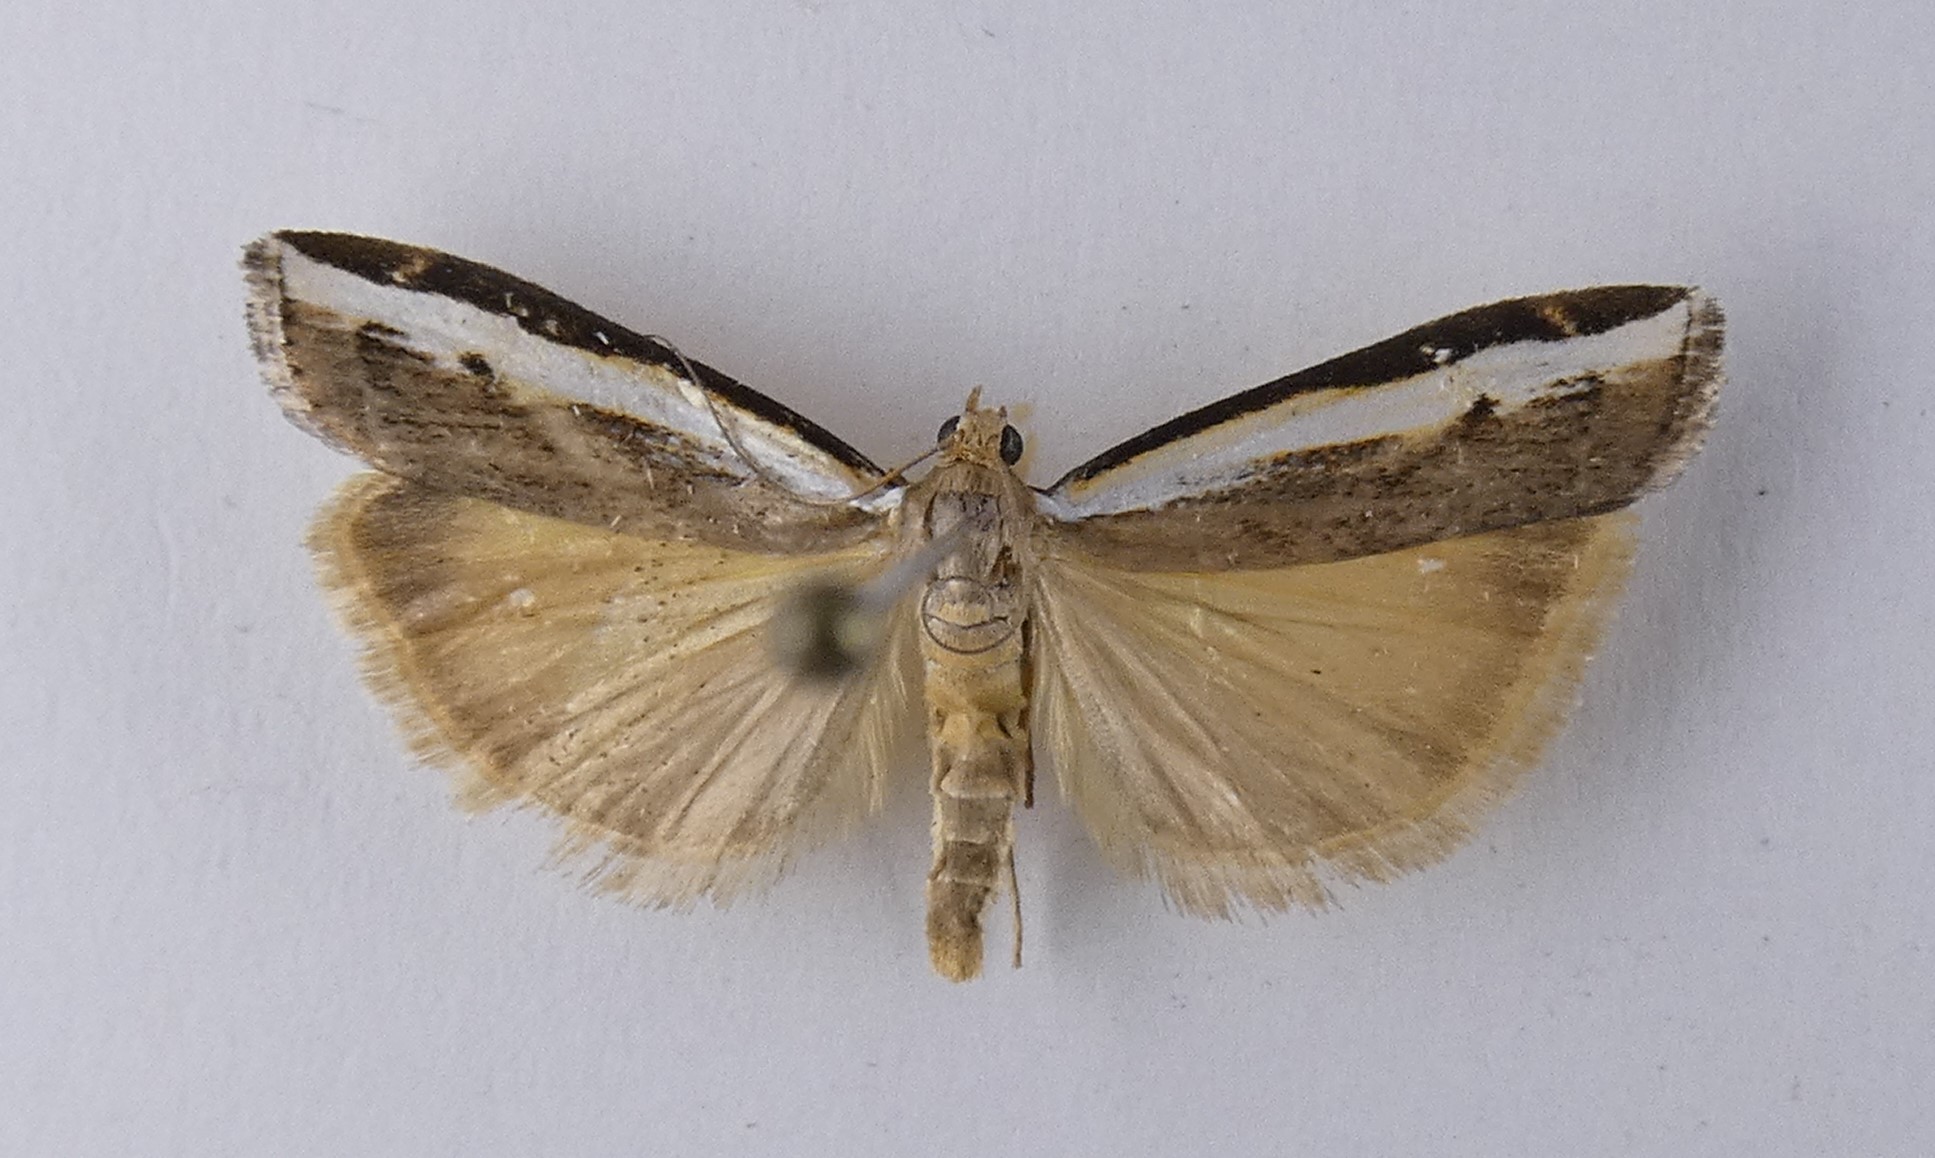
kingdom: Animalia
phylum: Arthropoda
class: Insecta
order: Lepidoptera
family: Crambidae
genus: Orocrambus
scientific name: Orocrambus flexuosellus
